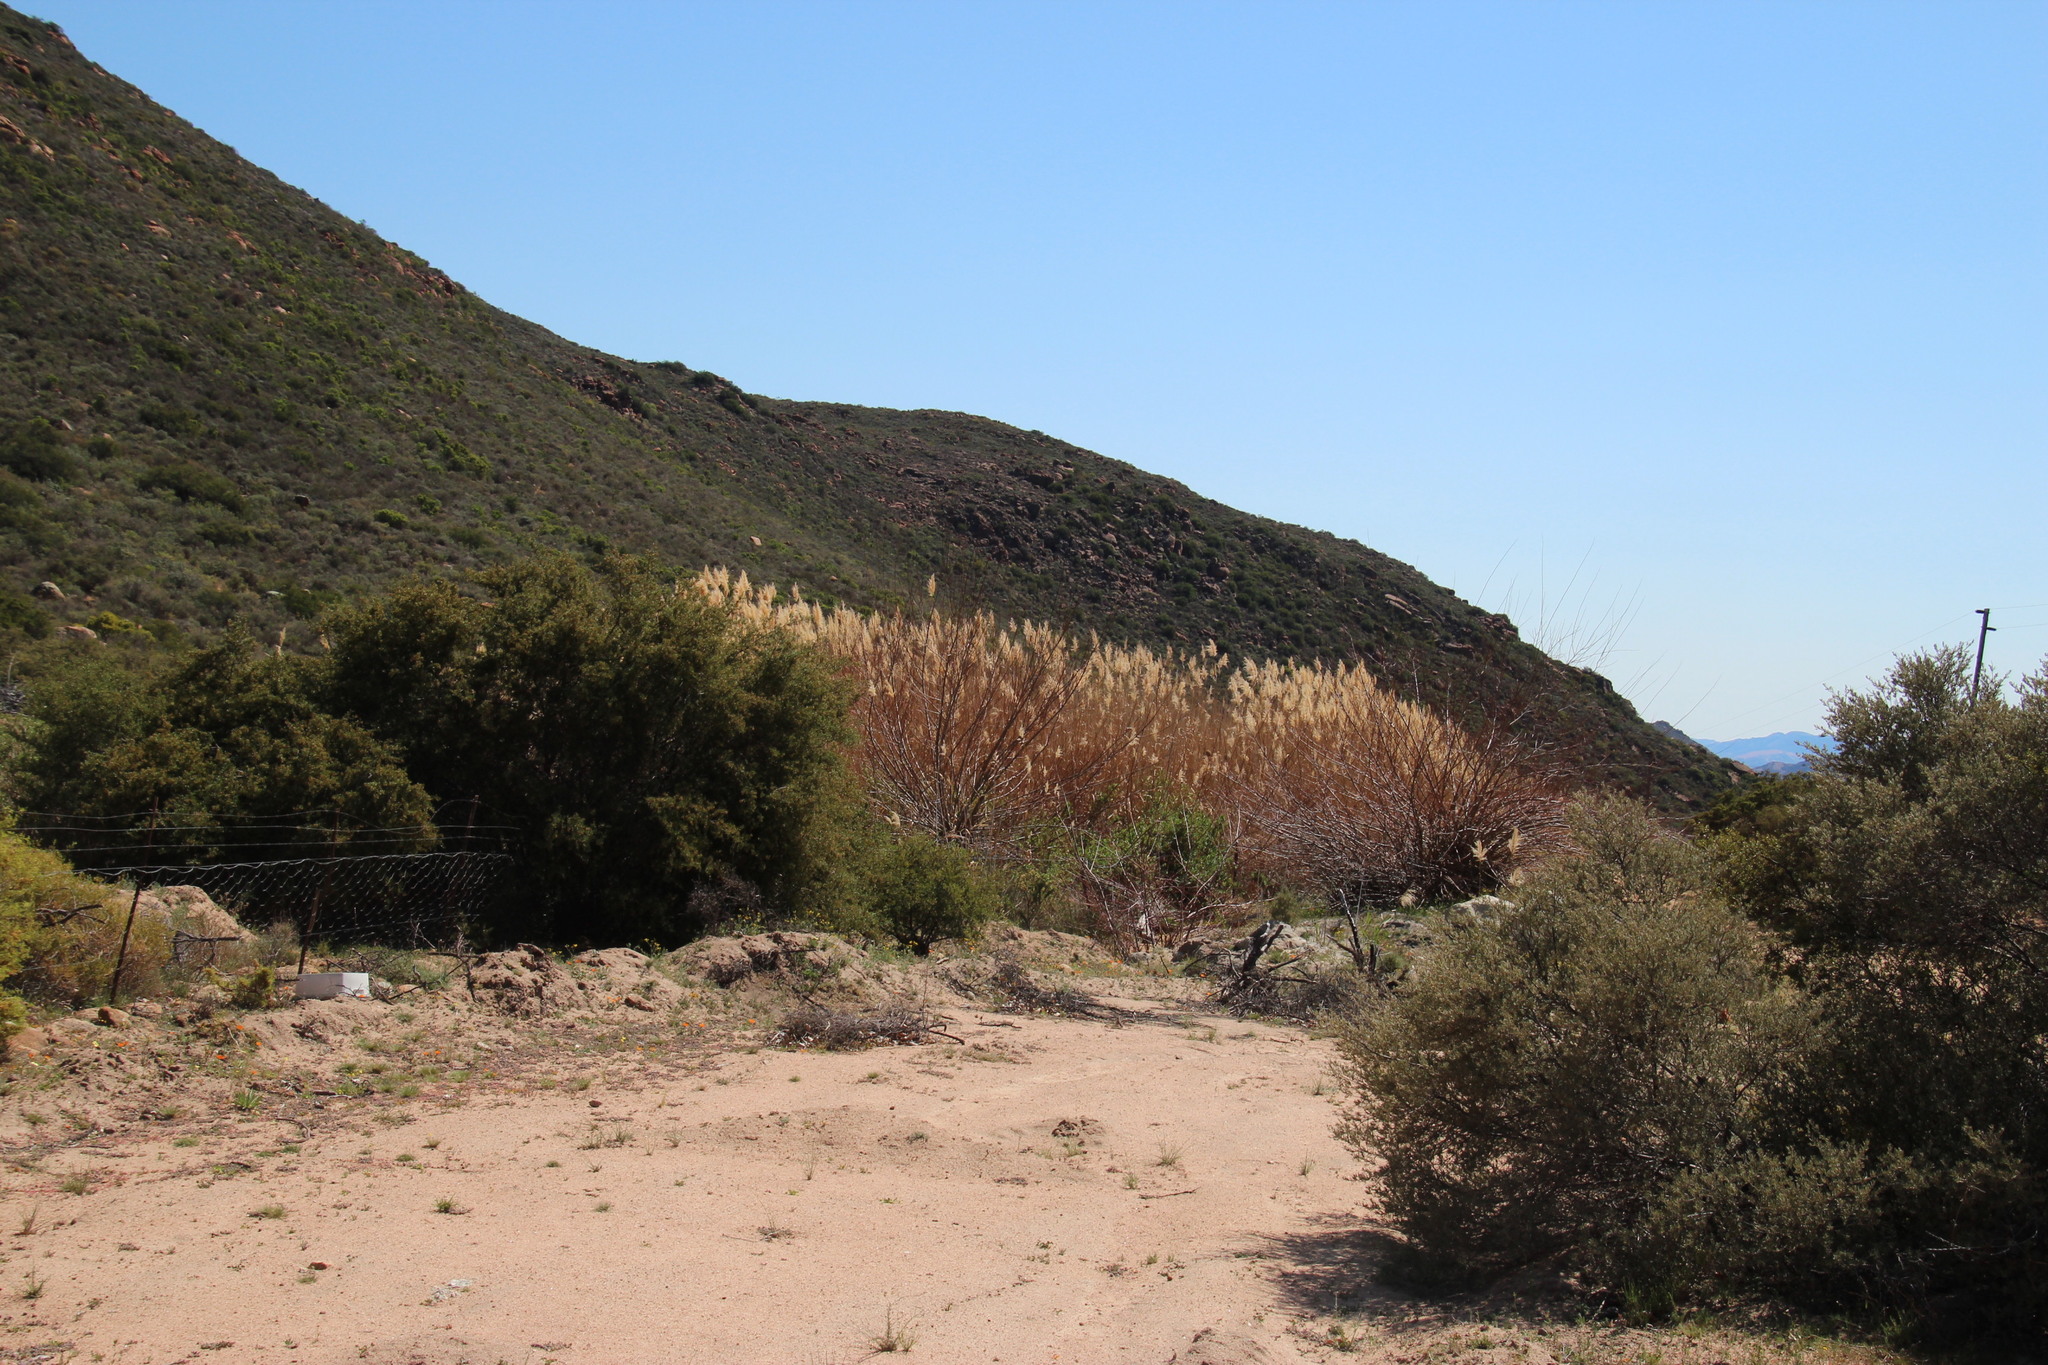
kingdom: Plantae
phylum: Tracheophyta
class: Liliopsida
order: Poales
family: Poaceae
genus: Phragmites
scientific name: Phragmites australis
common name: Common reed
